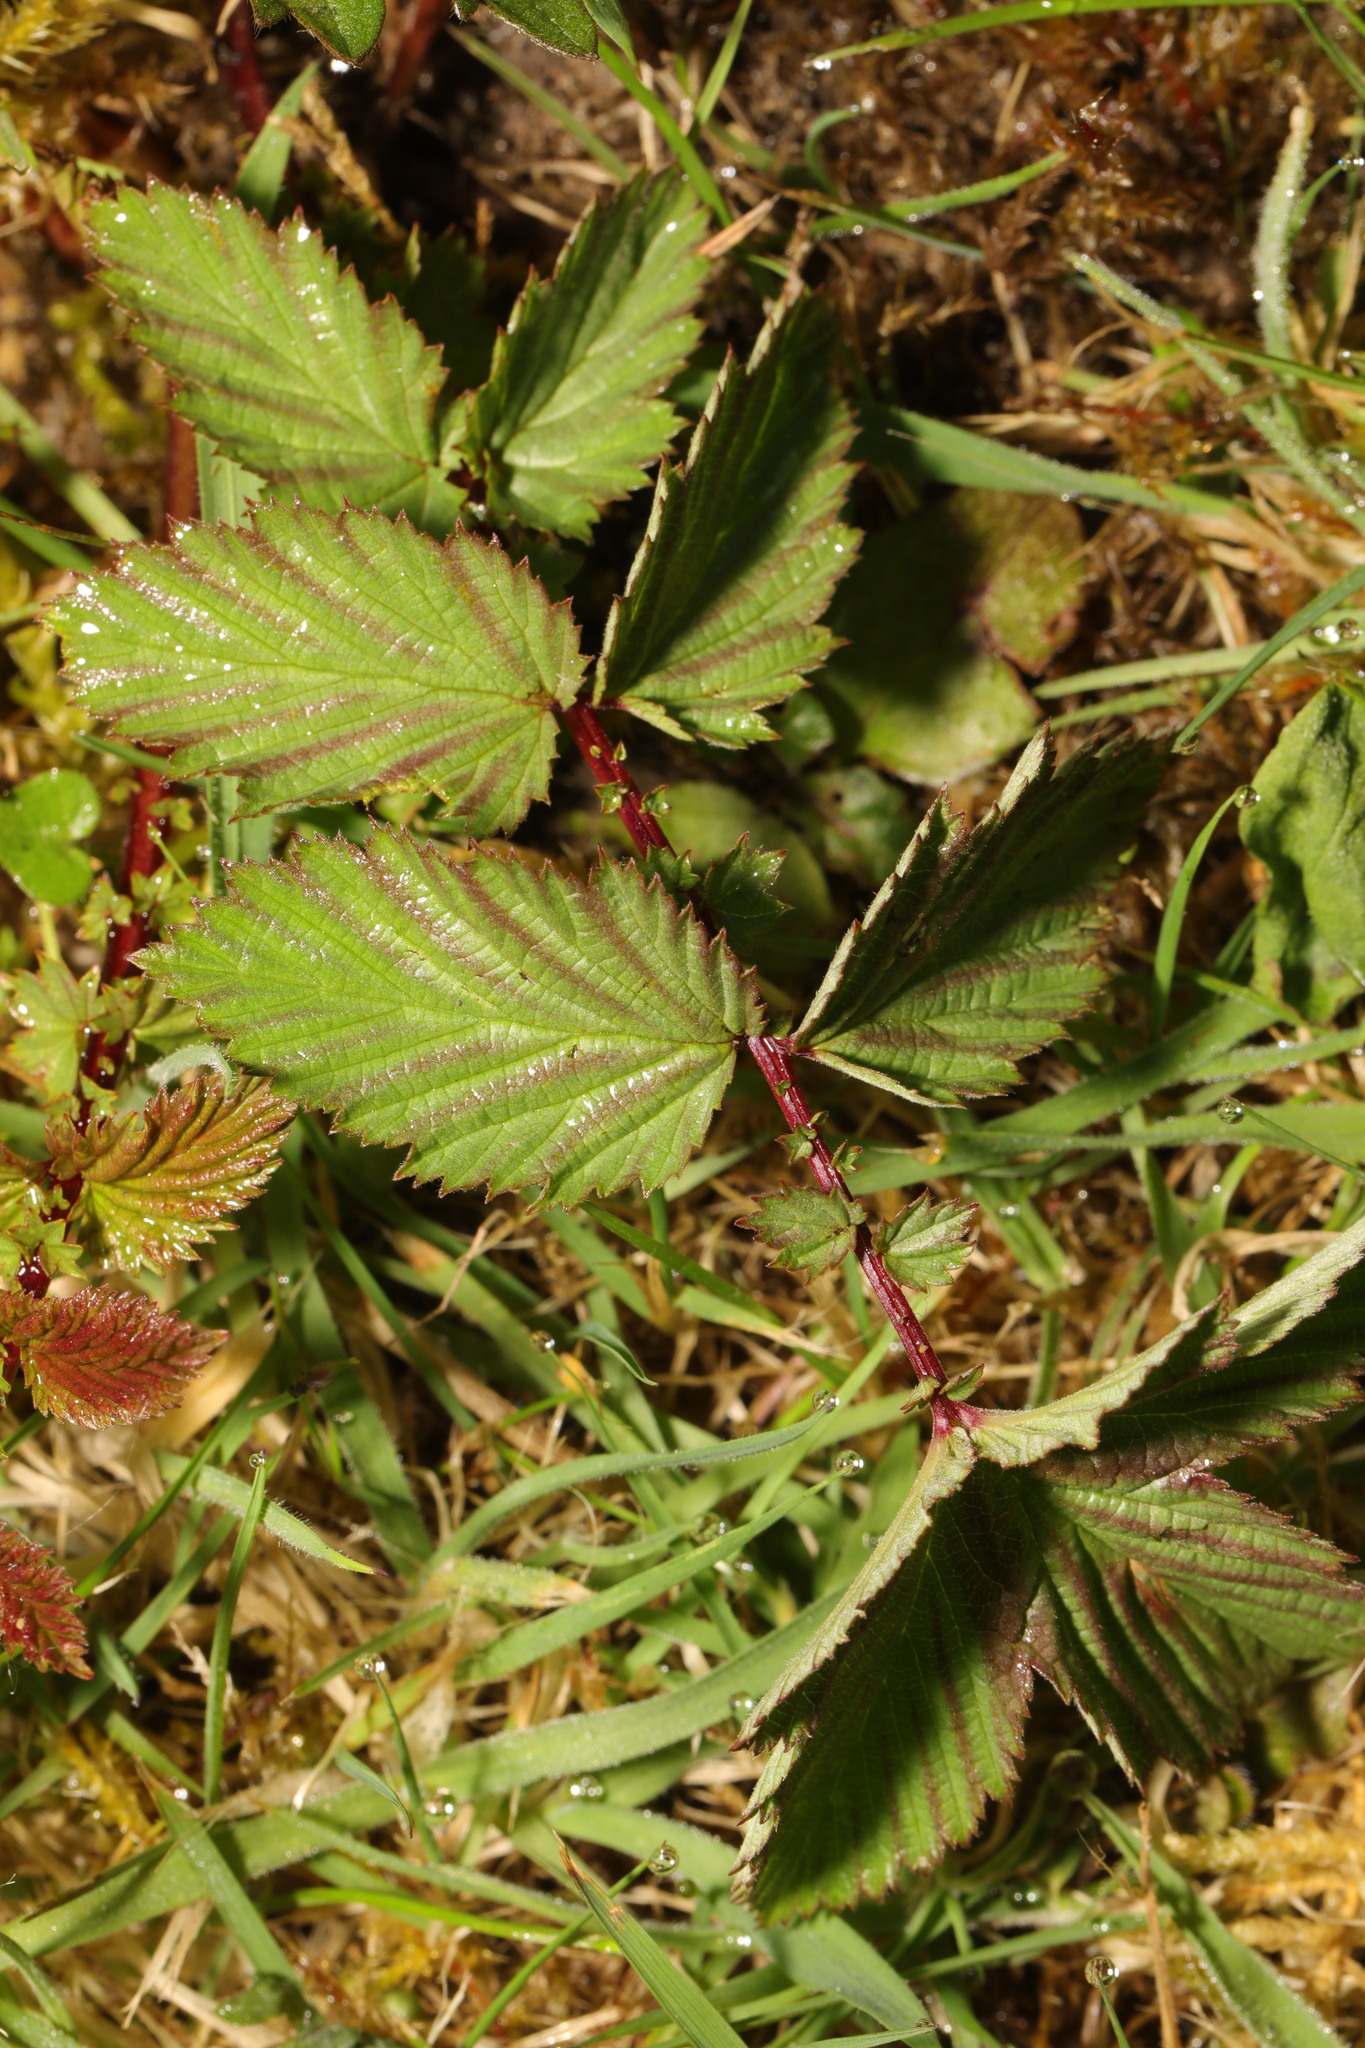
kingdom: Plantae
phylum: Tracheophyta
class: Magnoliopsida
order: Rosales
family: Rosaceae
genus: Filipendula
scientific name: Filipendula ulmaria
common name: Meadowsweet
